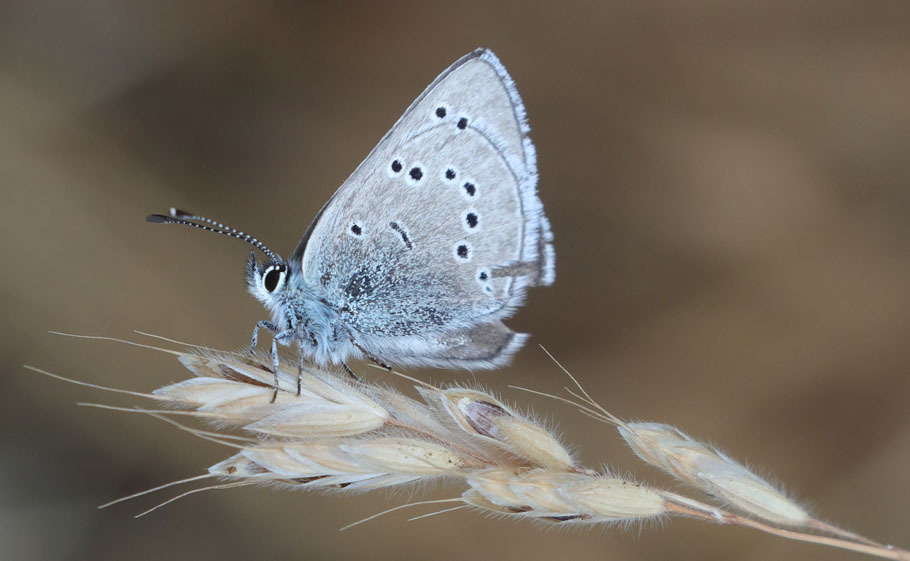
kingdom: Animalia
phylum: Arthropoda
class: Insecta
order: Lepidoptera
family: Lycaenidae
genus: Glaucopsyche
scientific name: Glaucopsyche lygdamus
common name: Silvery blue
